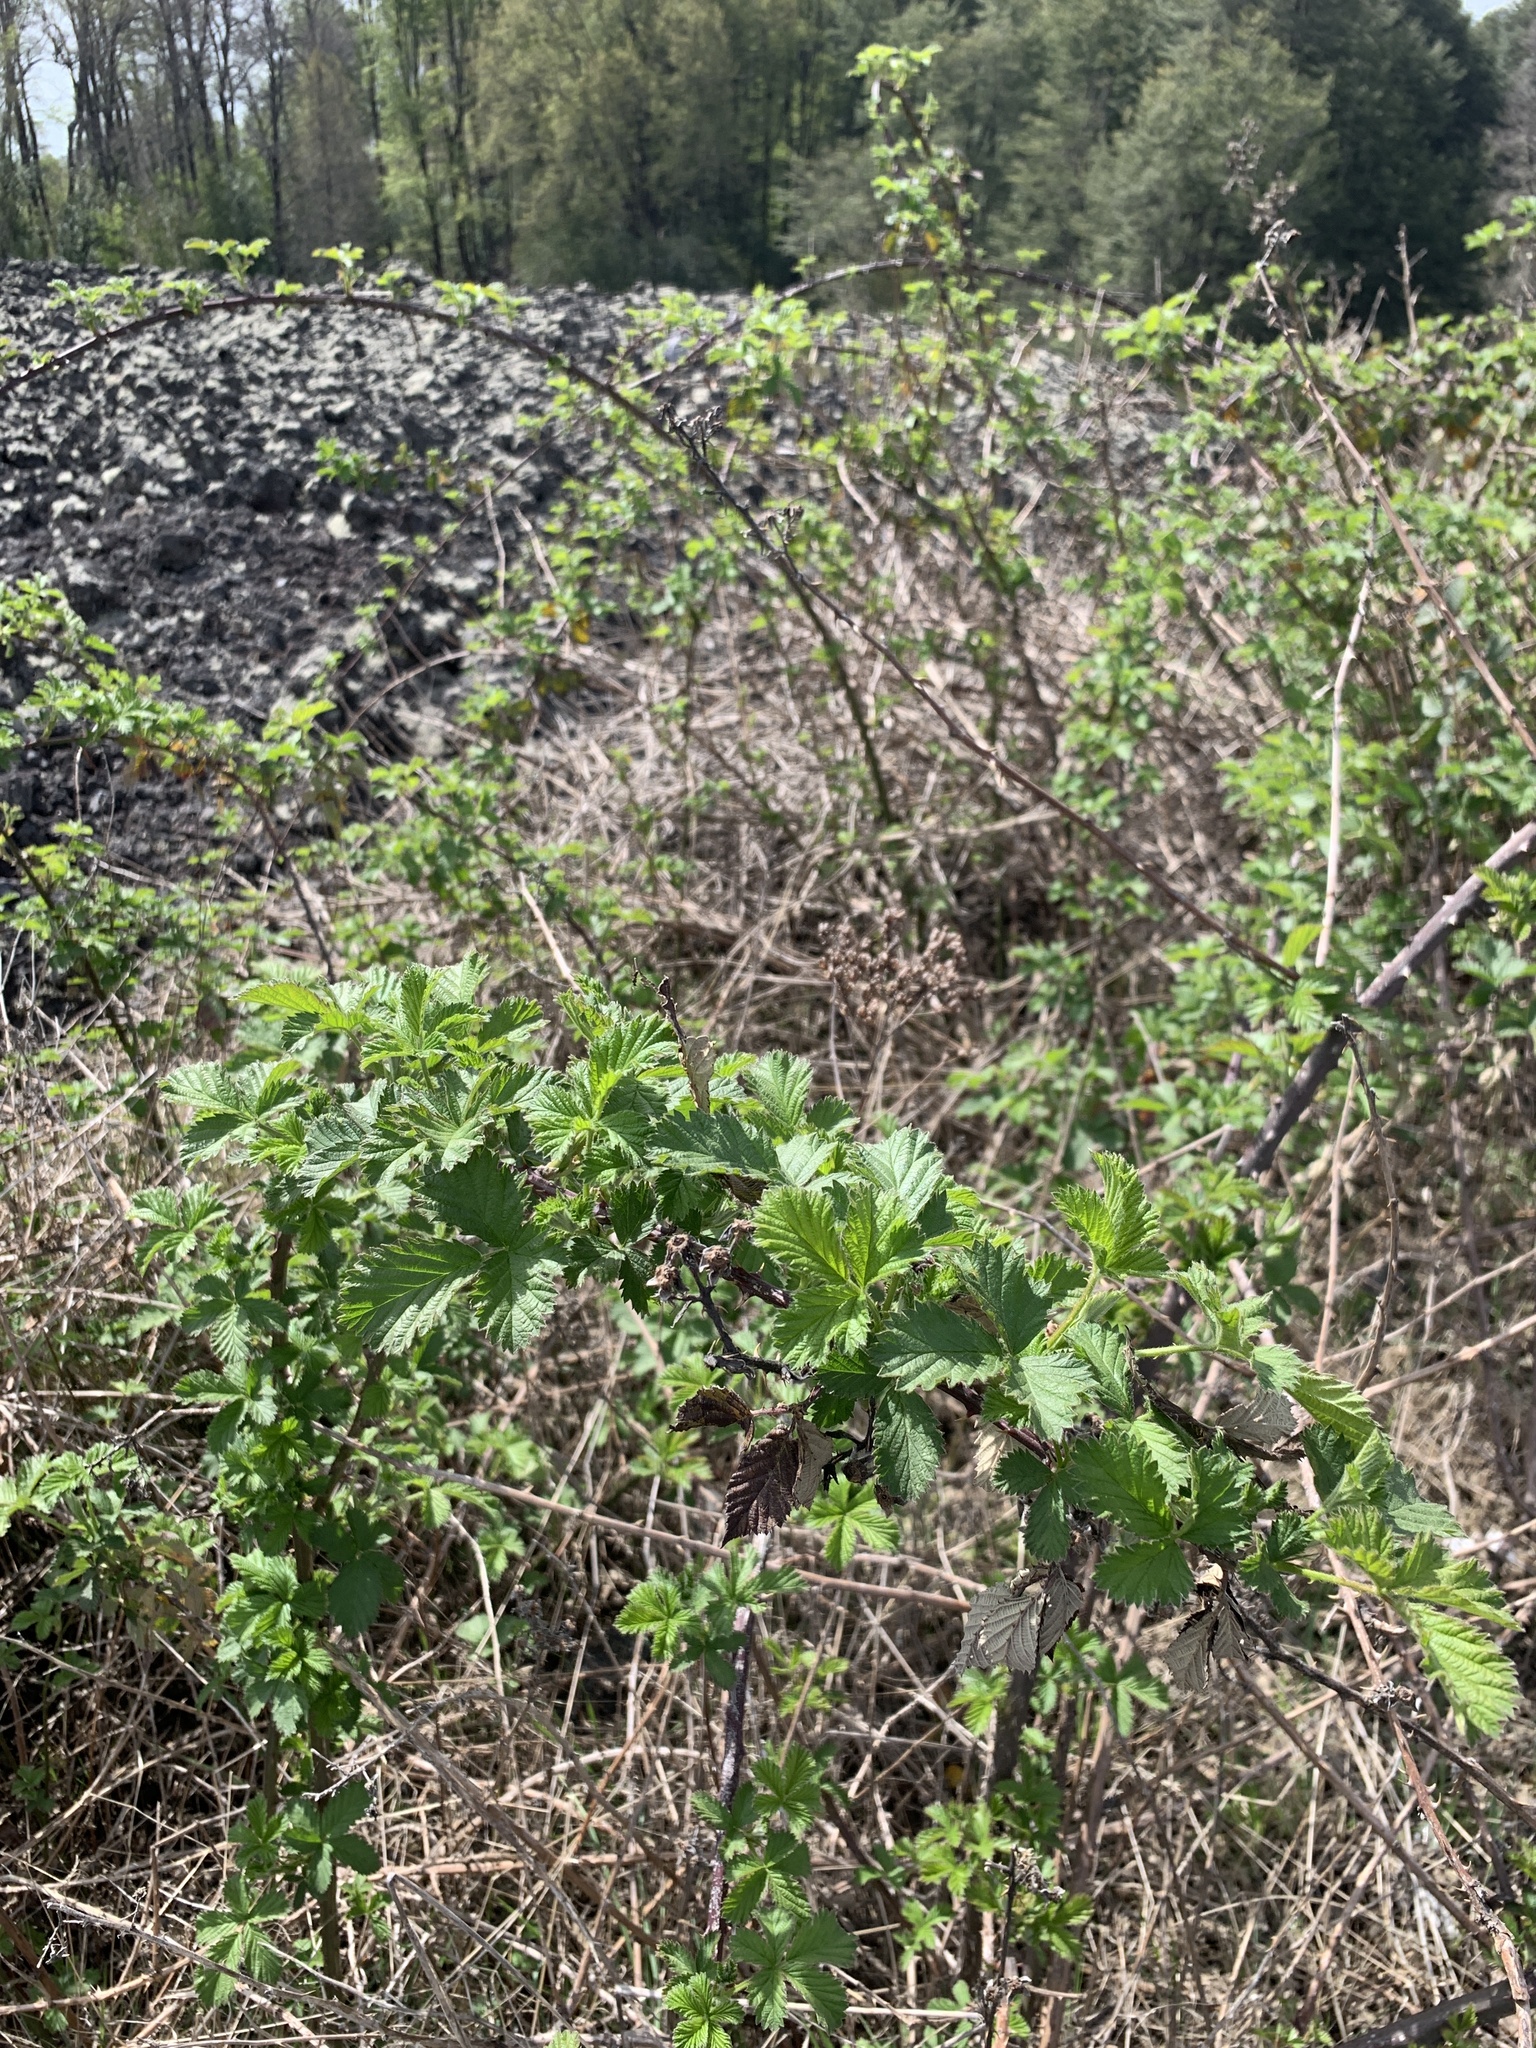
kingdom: Plantae
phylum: Tracheophyta
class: Magnoliopsida
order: Rosales
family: Rosaceae
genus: Rubus
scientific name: Rubus ulmifolius
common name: Elmleaf blackberry
